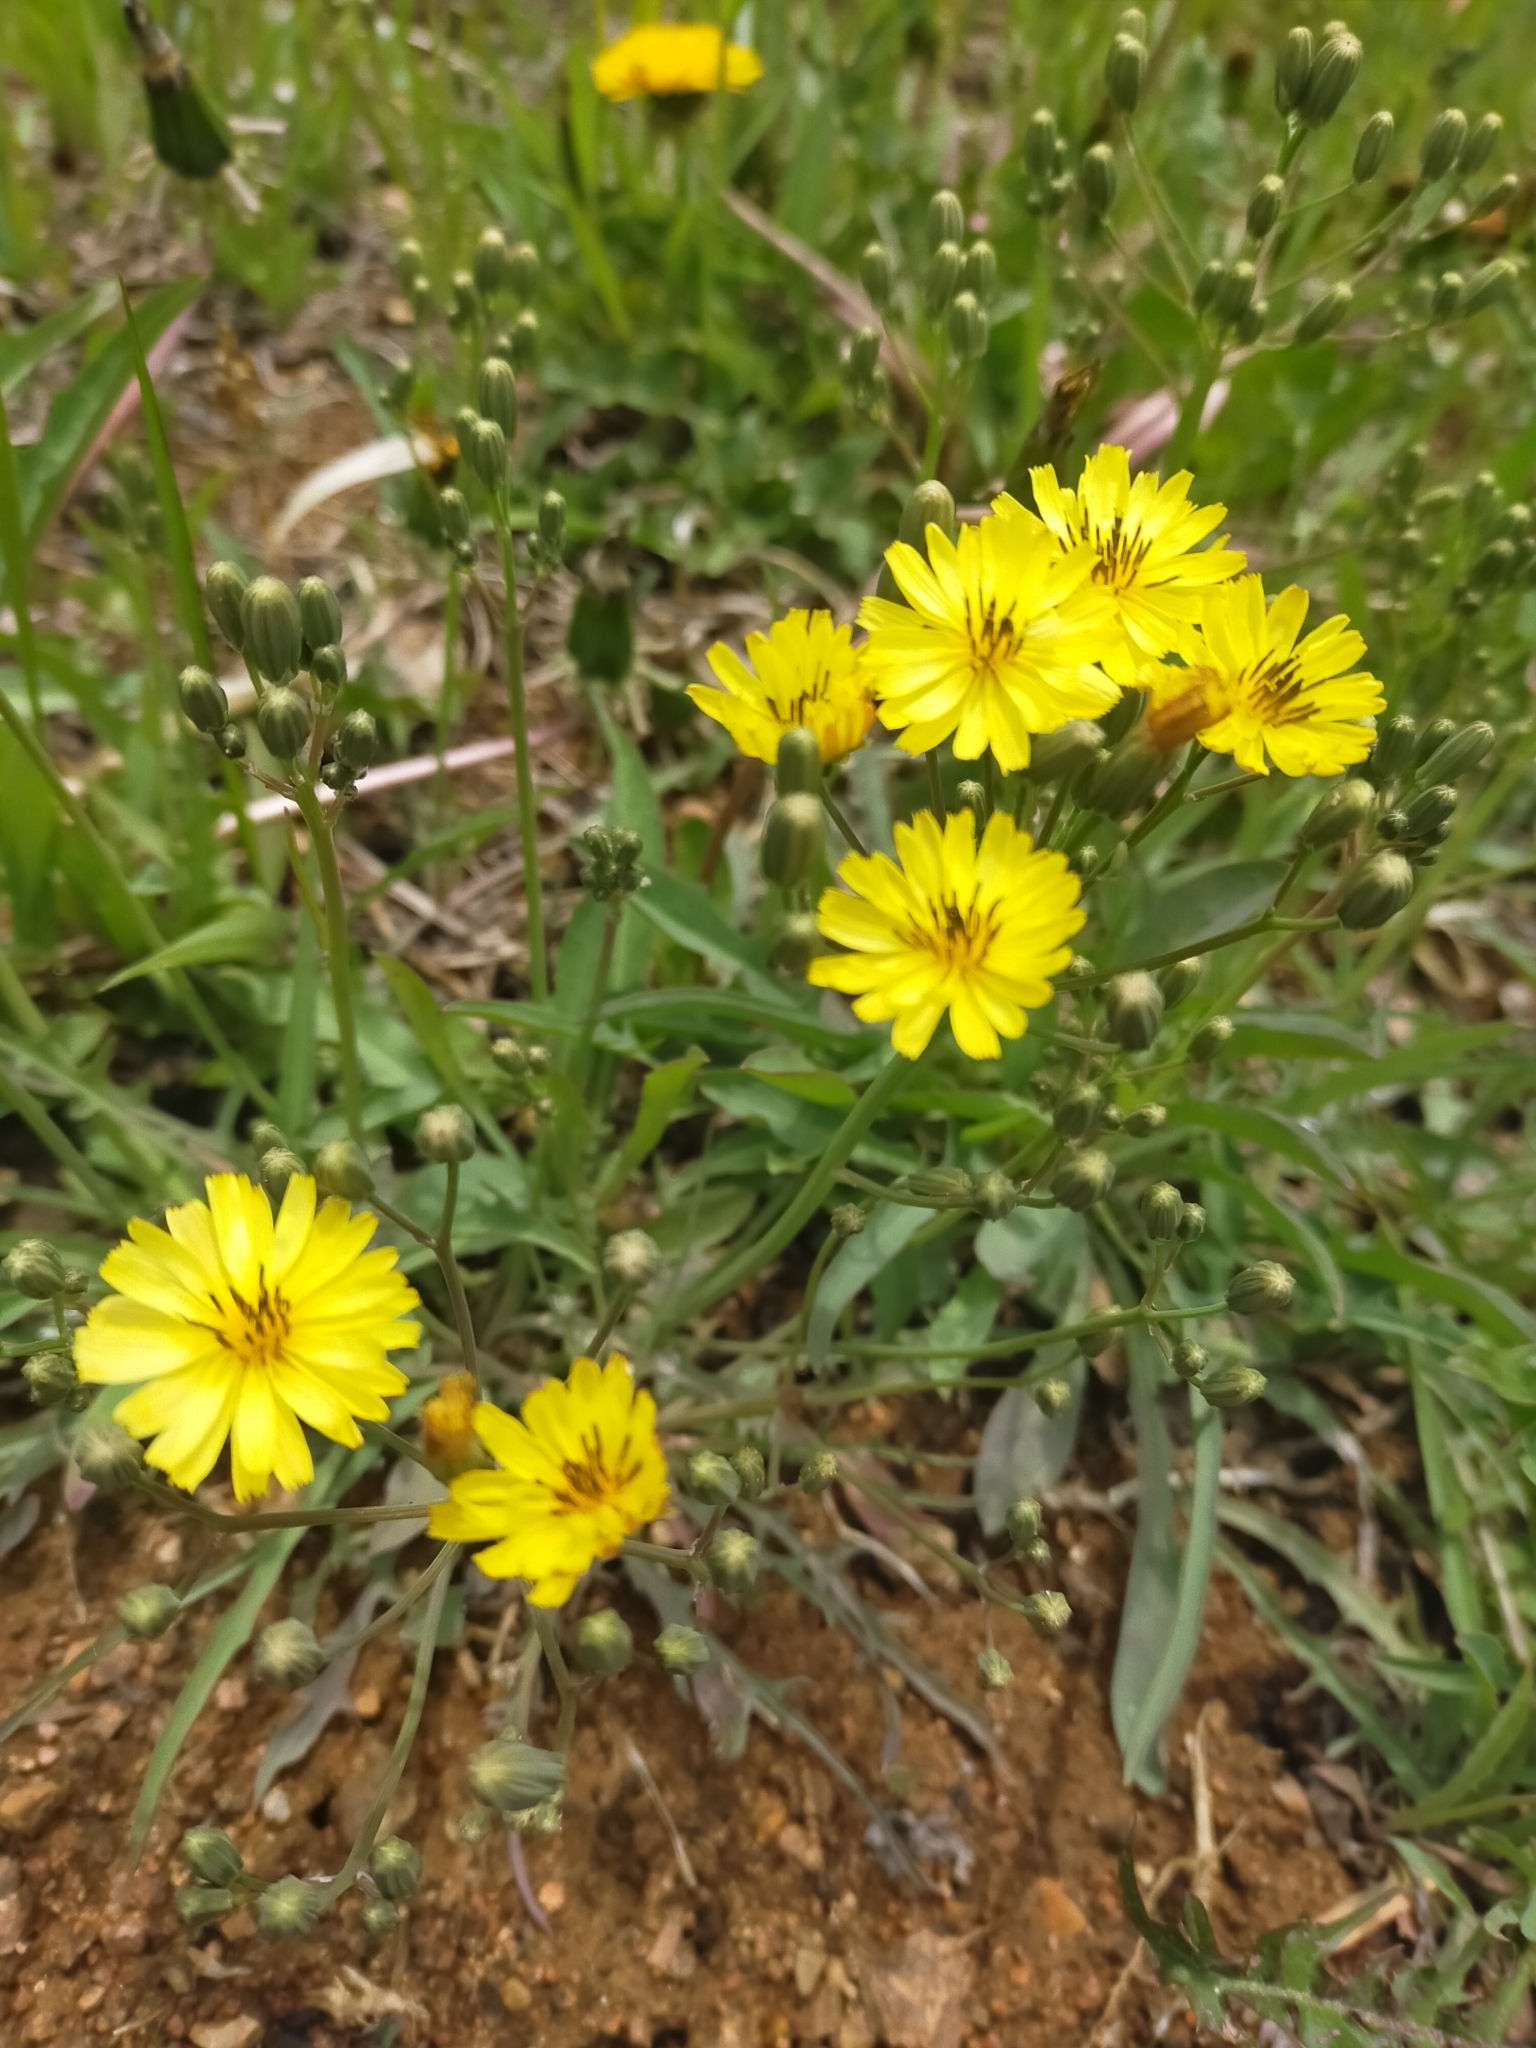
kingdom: Plantae
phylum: Tracheophyta
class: Magnoliopsida
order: Asterales
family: Asteraceae
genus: Ixeris
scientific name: Ixeris chinensis
